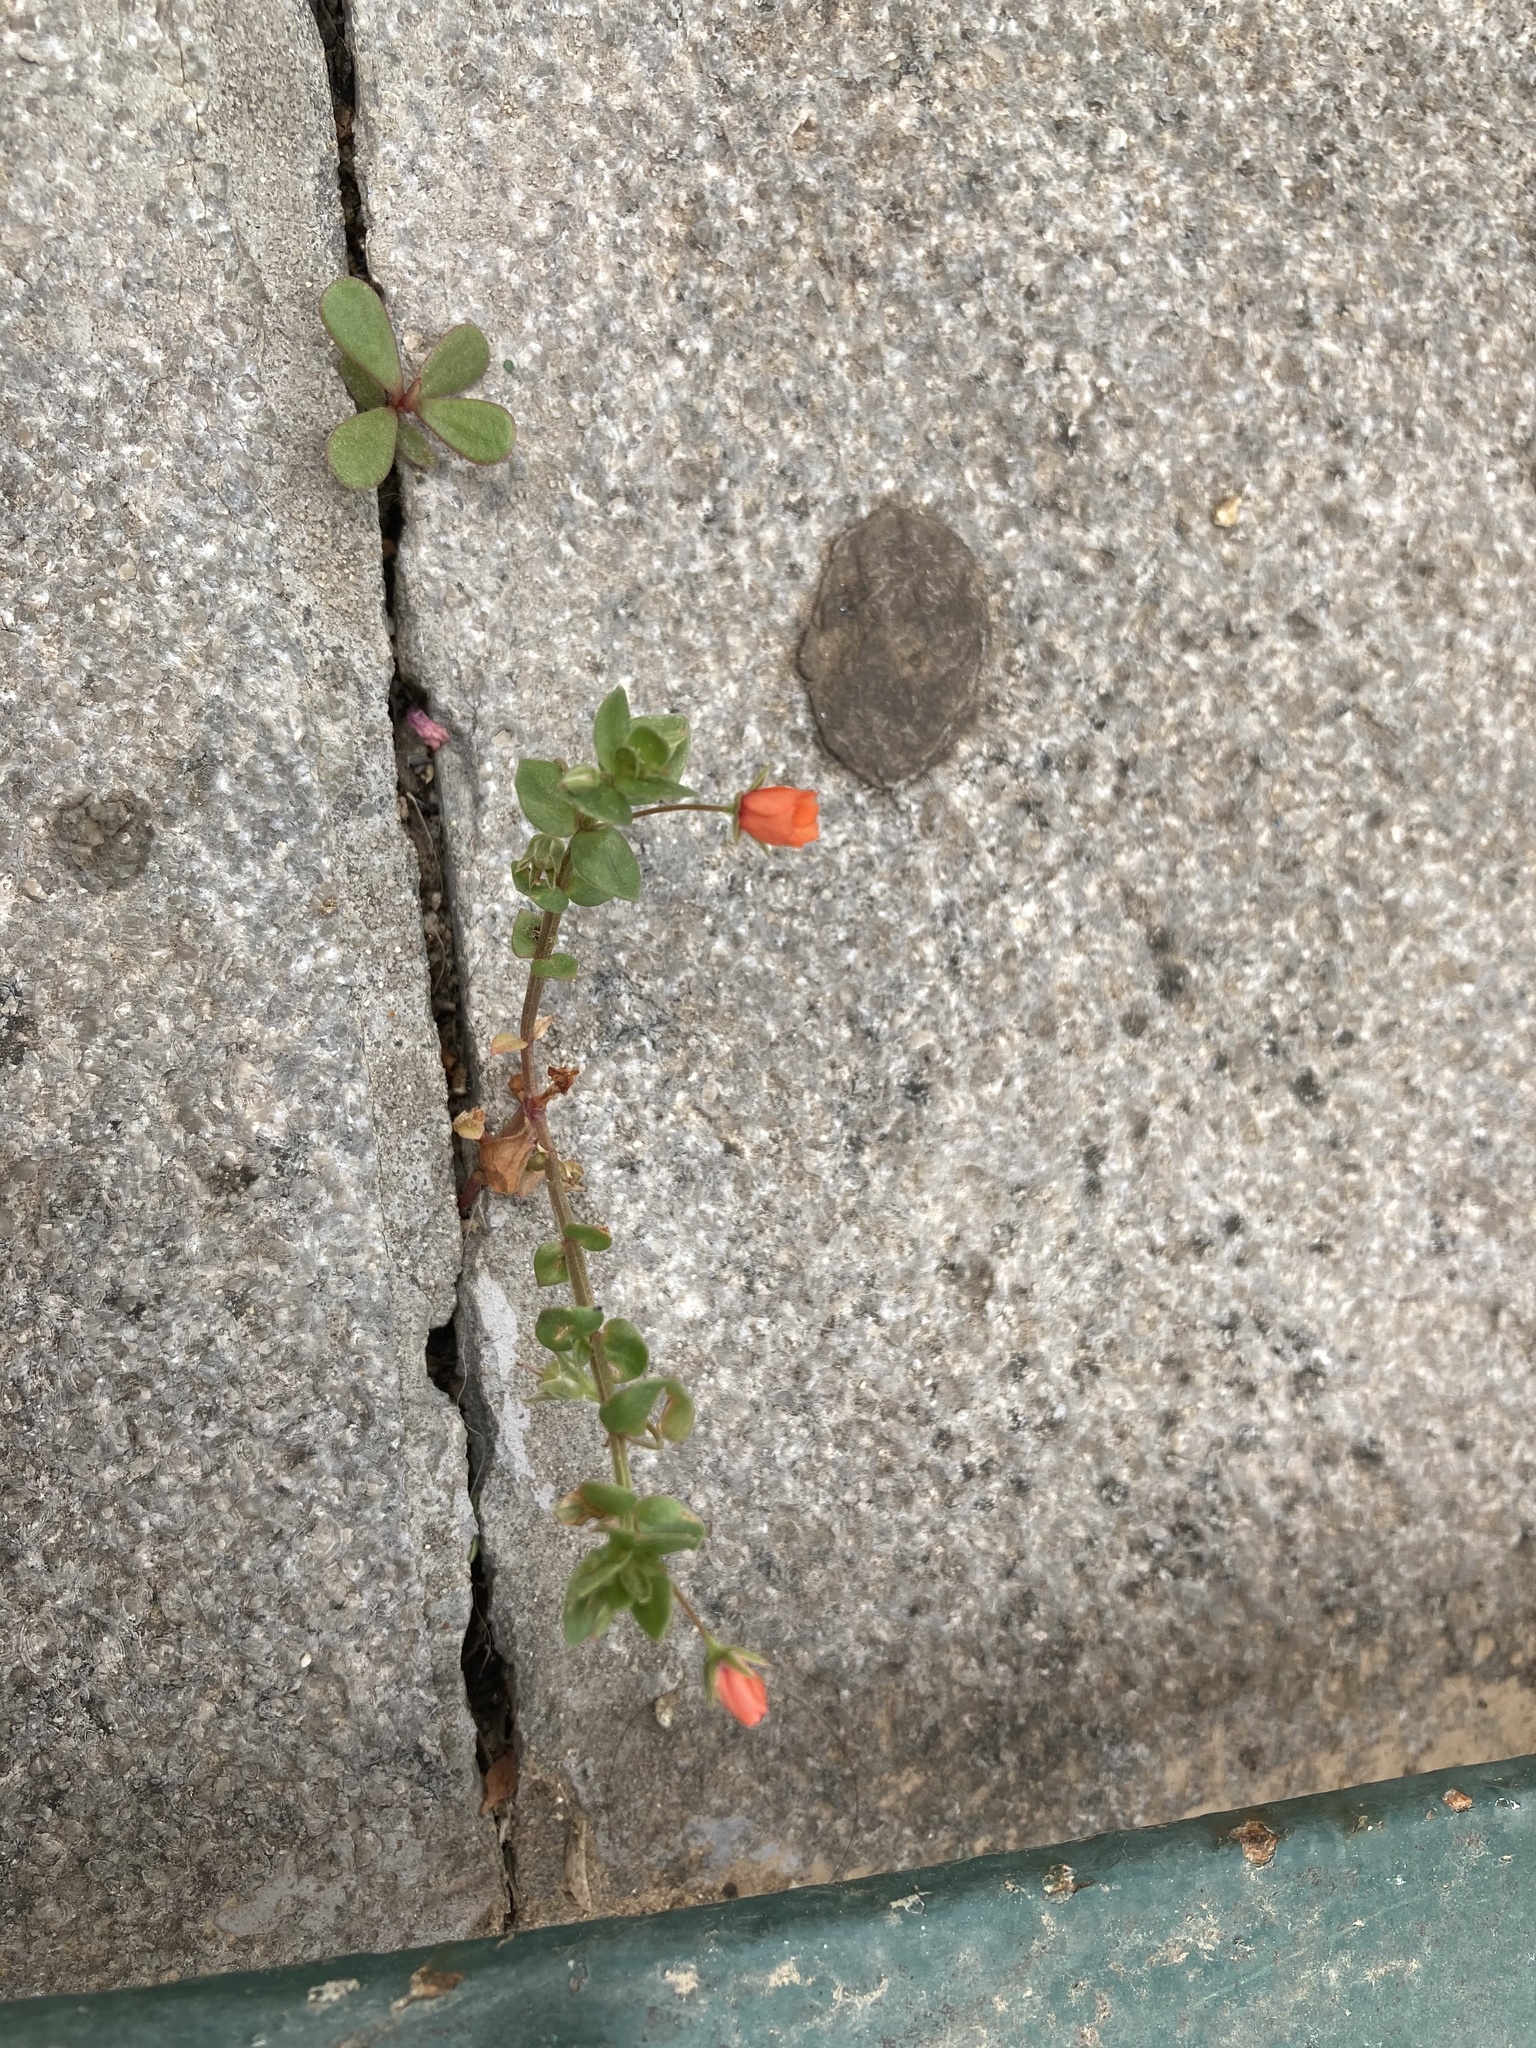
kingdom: Plantae
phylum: Tracheophyta
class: Magnoliopsida
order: Ericales
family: Primulaceae
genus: Lysimachia
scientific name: Lysimachia arvensis
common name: Scarlet pimpernel
